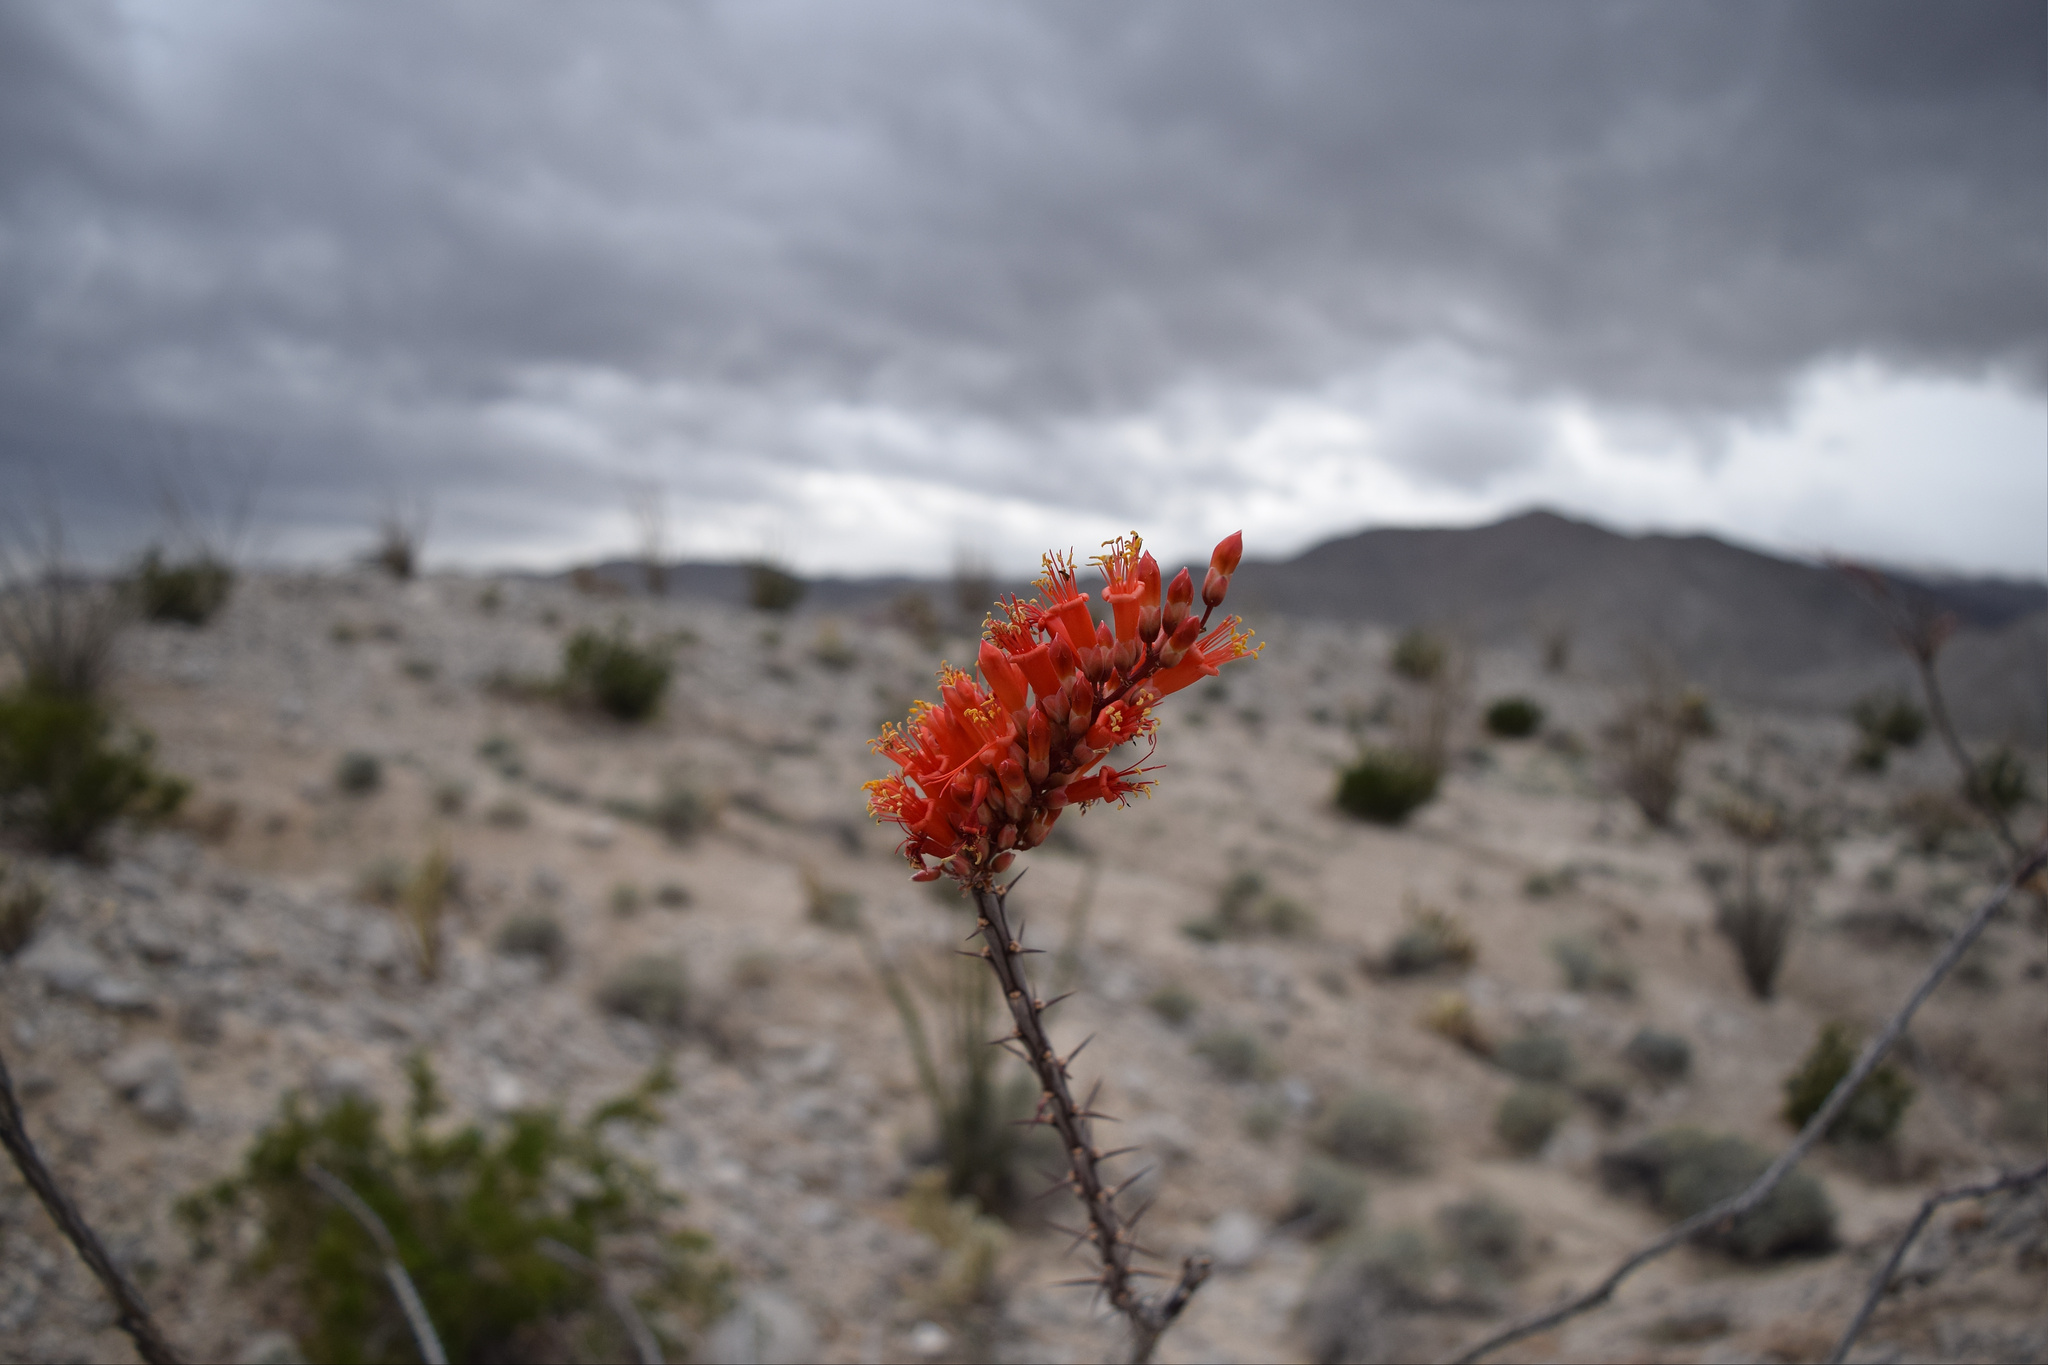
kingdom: Plantae
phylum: Tracheophyta
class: Magnoliopsida
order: Ericales
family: Fouquieriaceae
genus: Fouquieria
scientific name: Fouquieria splendens
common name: Vine-cactus
